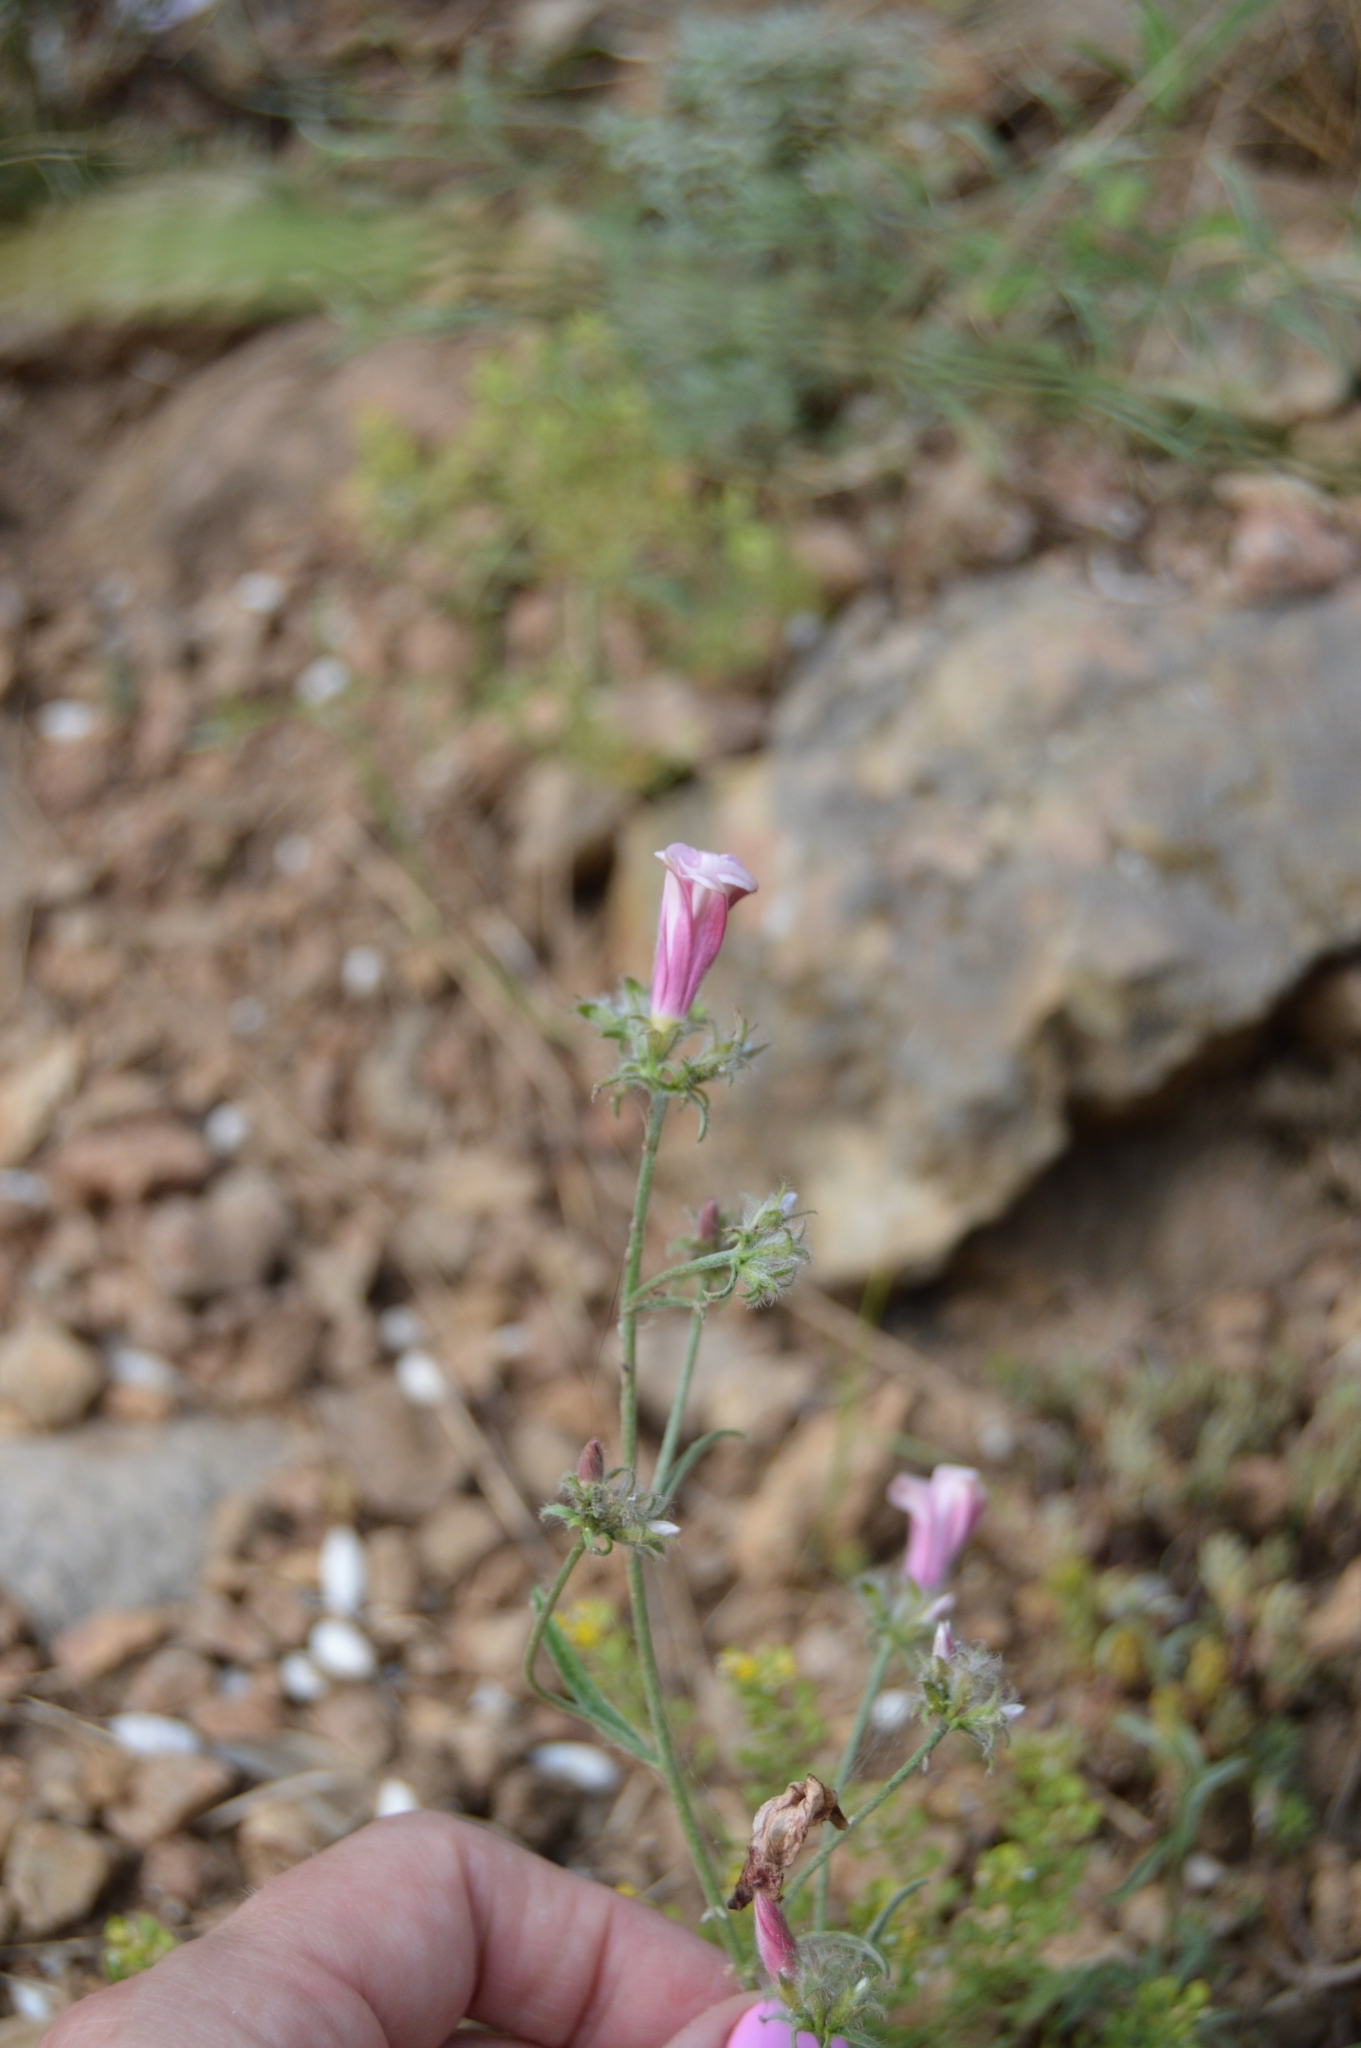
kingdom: Plantae
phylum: Tracheophyta
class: Magnoliopsida
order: Solanales
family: Convolvulaceae
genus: Convolvulus
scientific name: Convolvulus cantabrica
